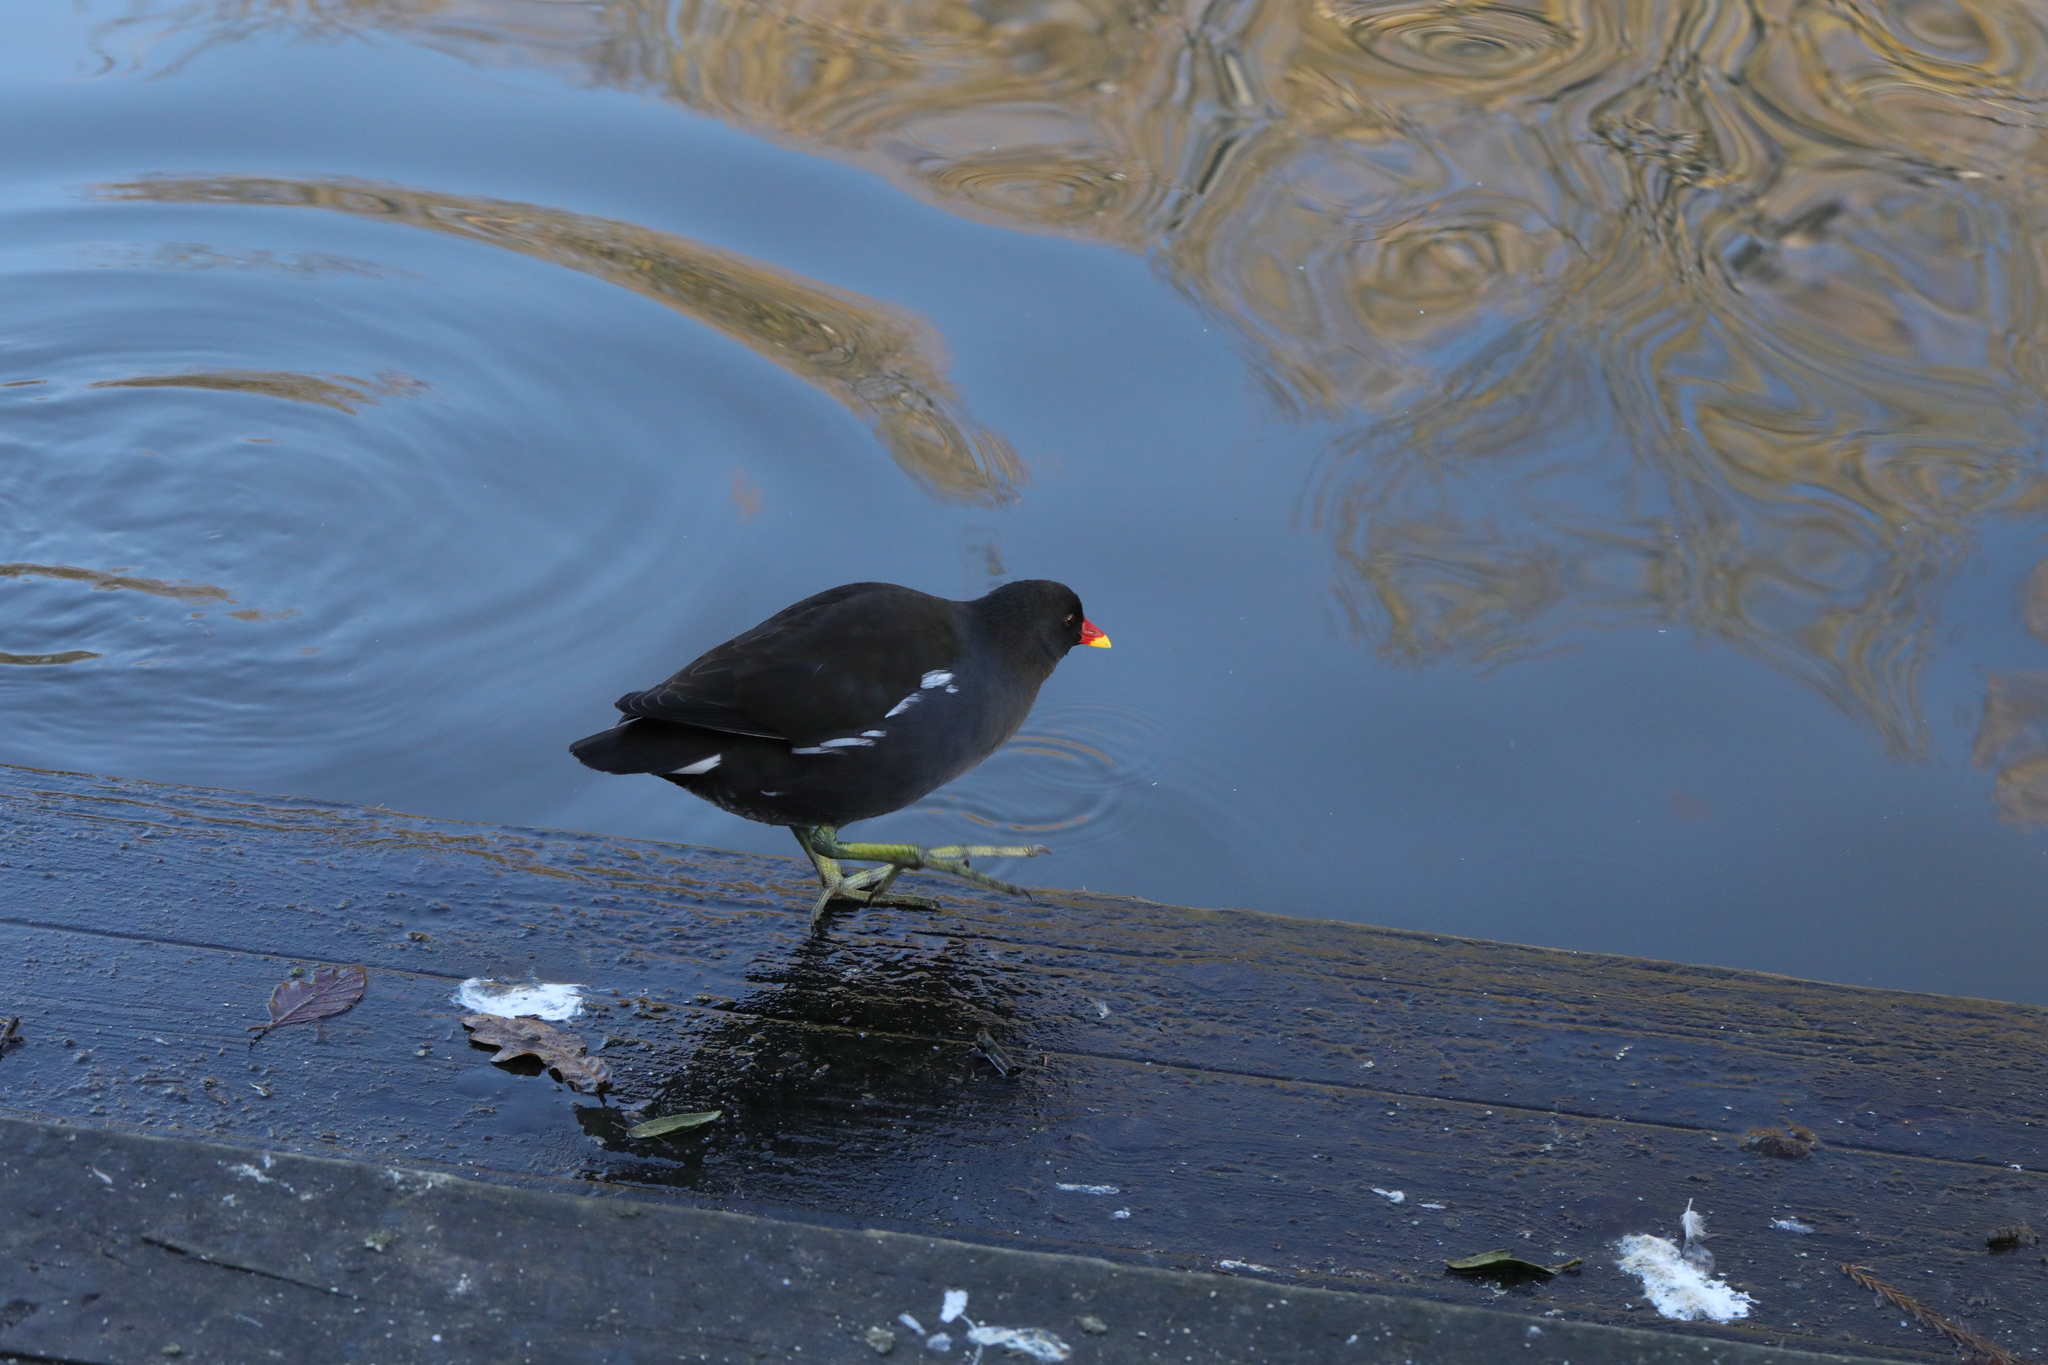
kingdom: Animalia
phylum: Chordata
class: Aves
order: Gruiformes
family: Rallidae
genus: Gallinula
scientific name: Gallinula chloropus
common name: Common moorhen
